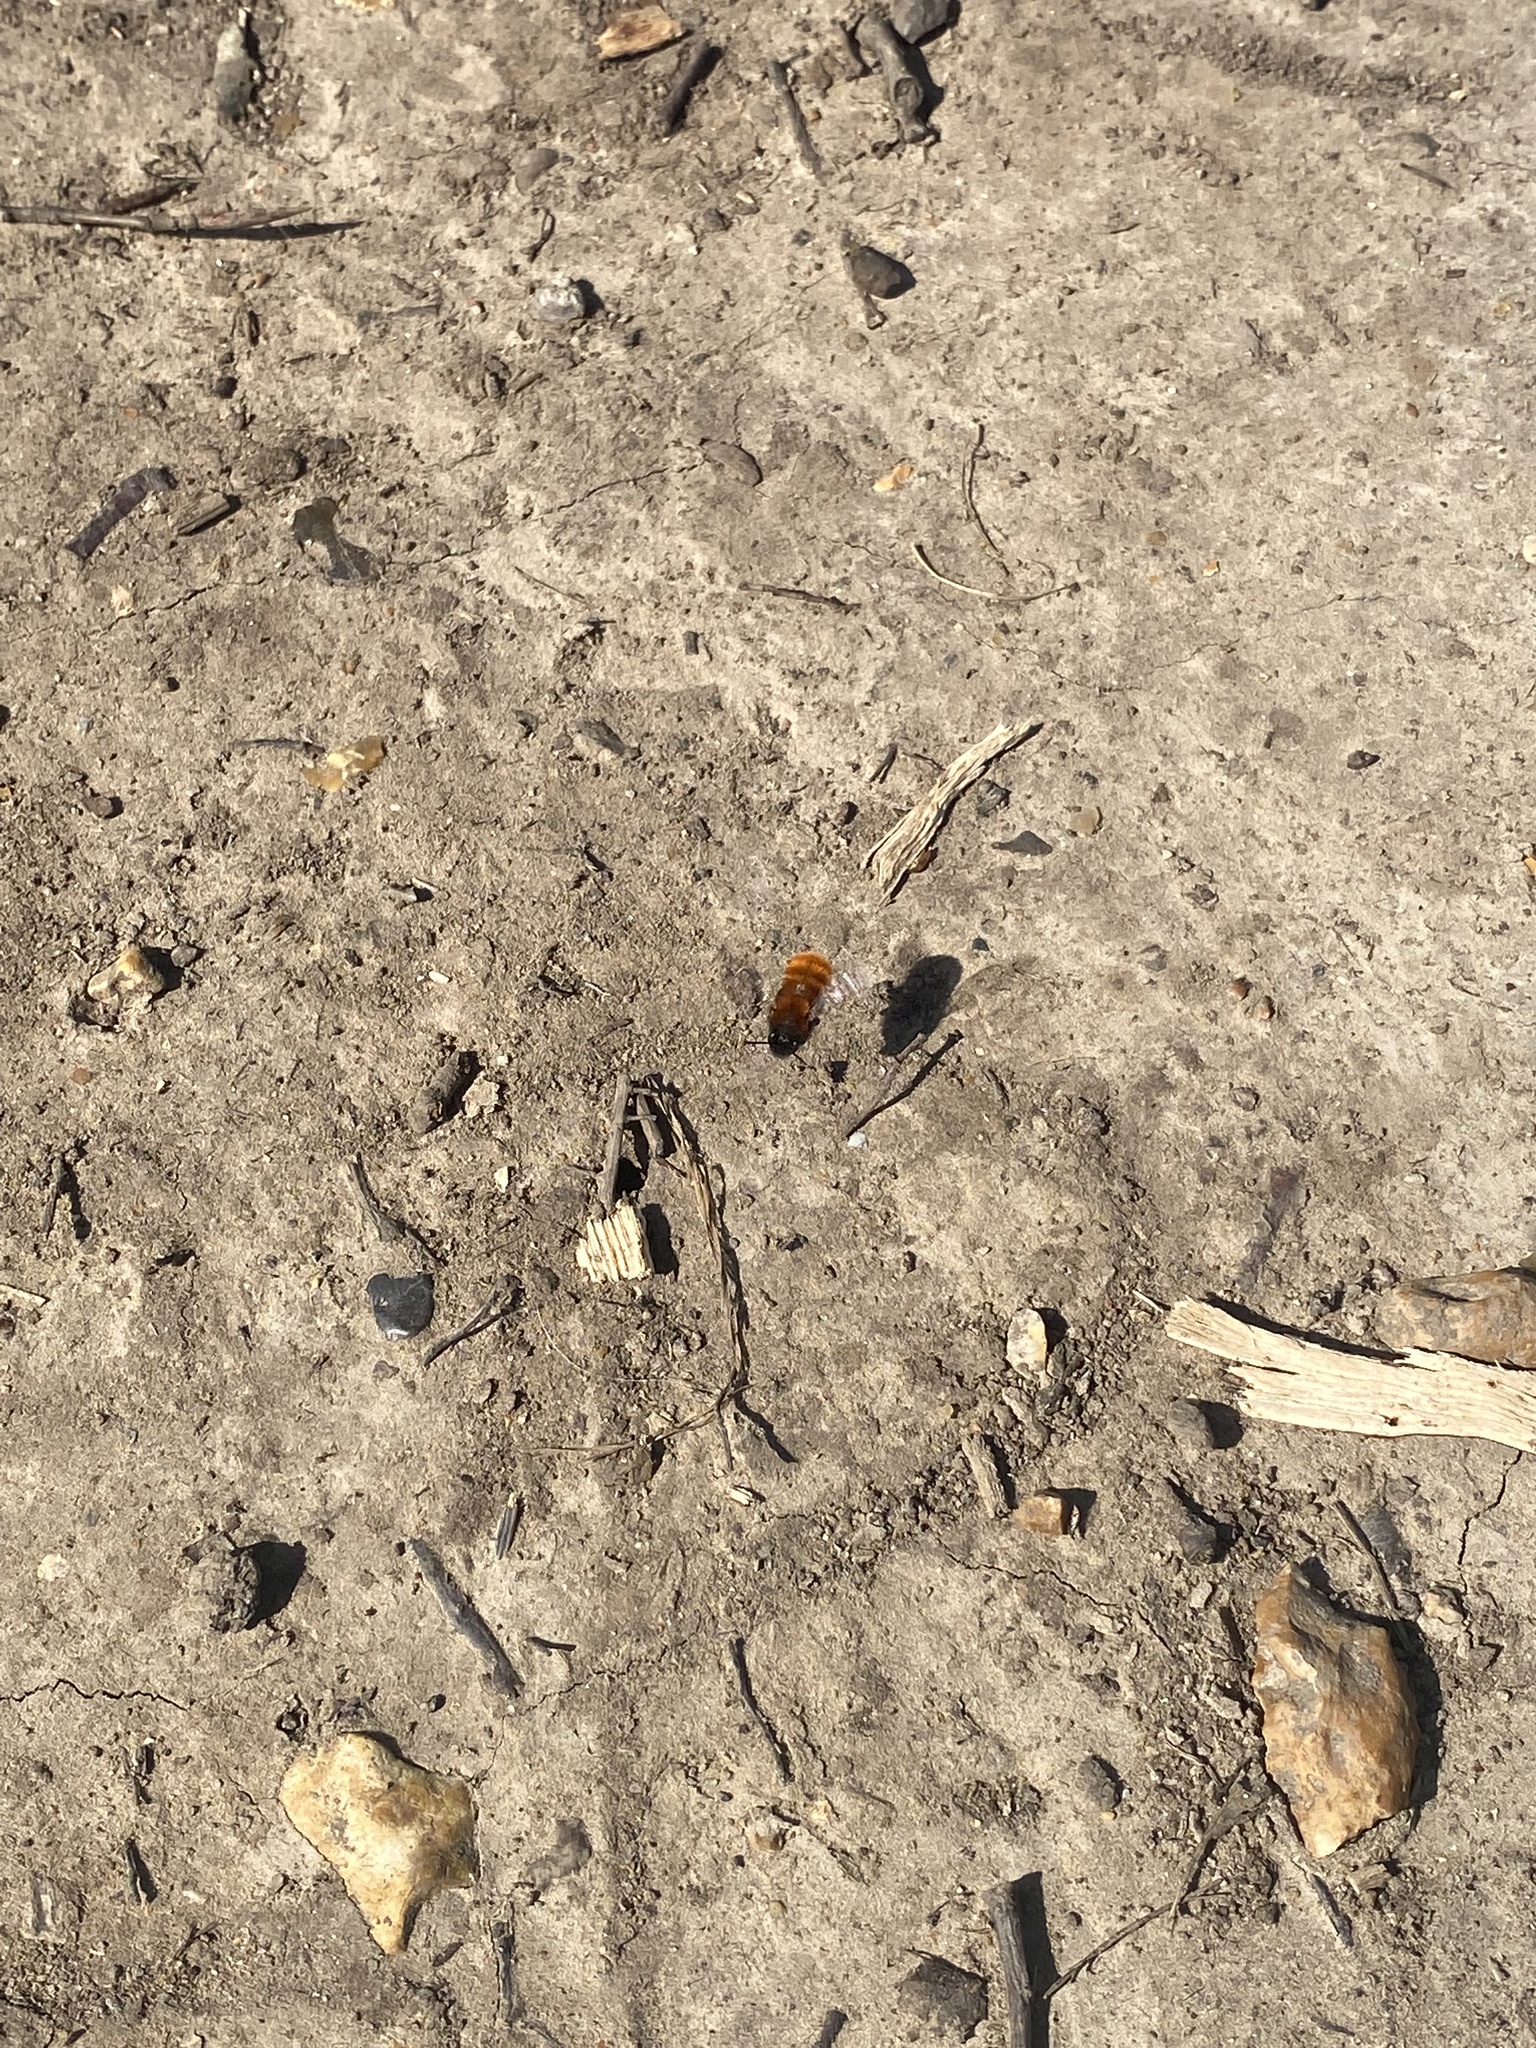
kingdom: Animalia
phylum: Arthropoda
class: Insecta
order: Hymenoptera
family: Andrenidae
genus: Andrena
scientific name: Andrena fulva
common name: Tawny mining bee
